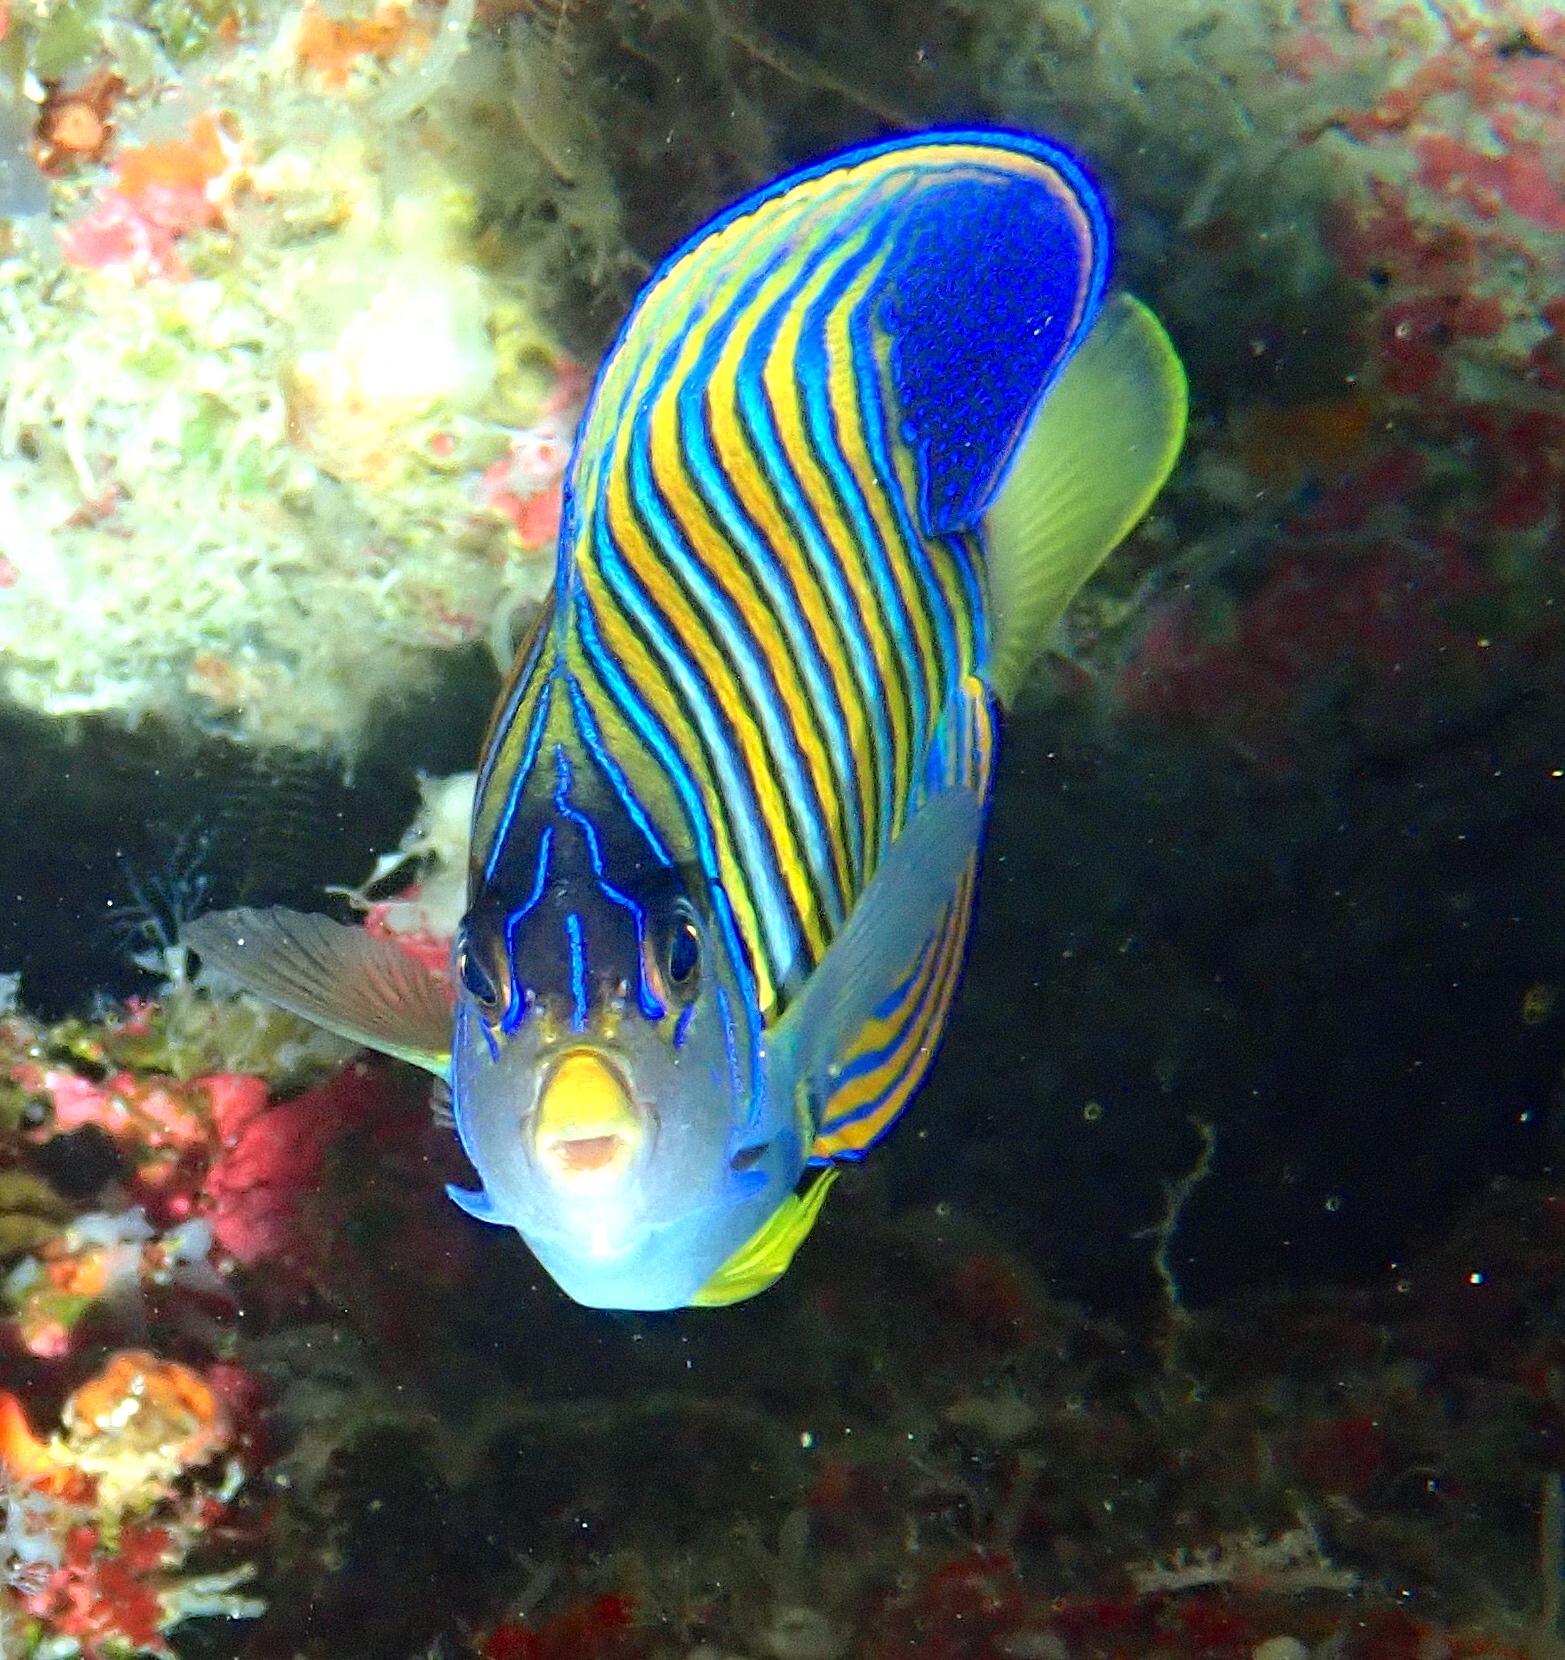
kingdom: Animalia
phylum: Chordata
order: Perciformes
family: Pomacanthidae
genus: Pygoplites
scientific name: Pygoplites diacanthus
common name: Regal angelfish
